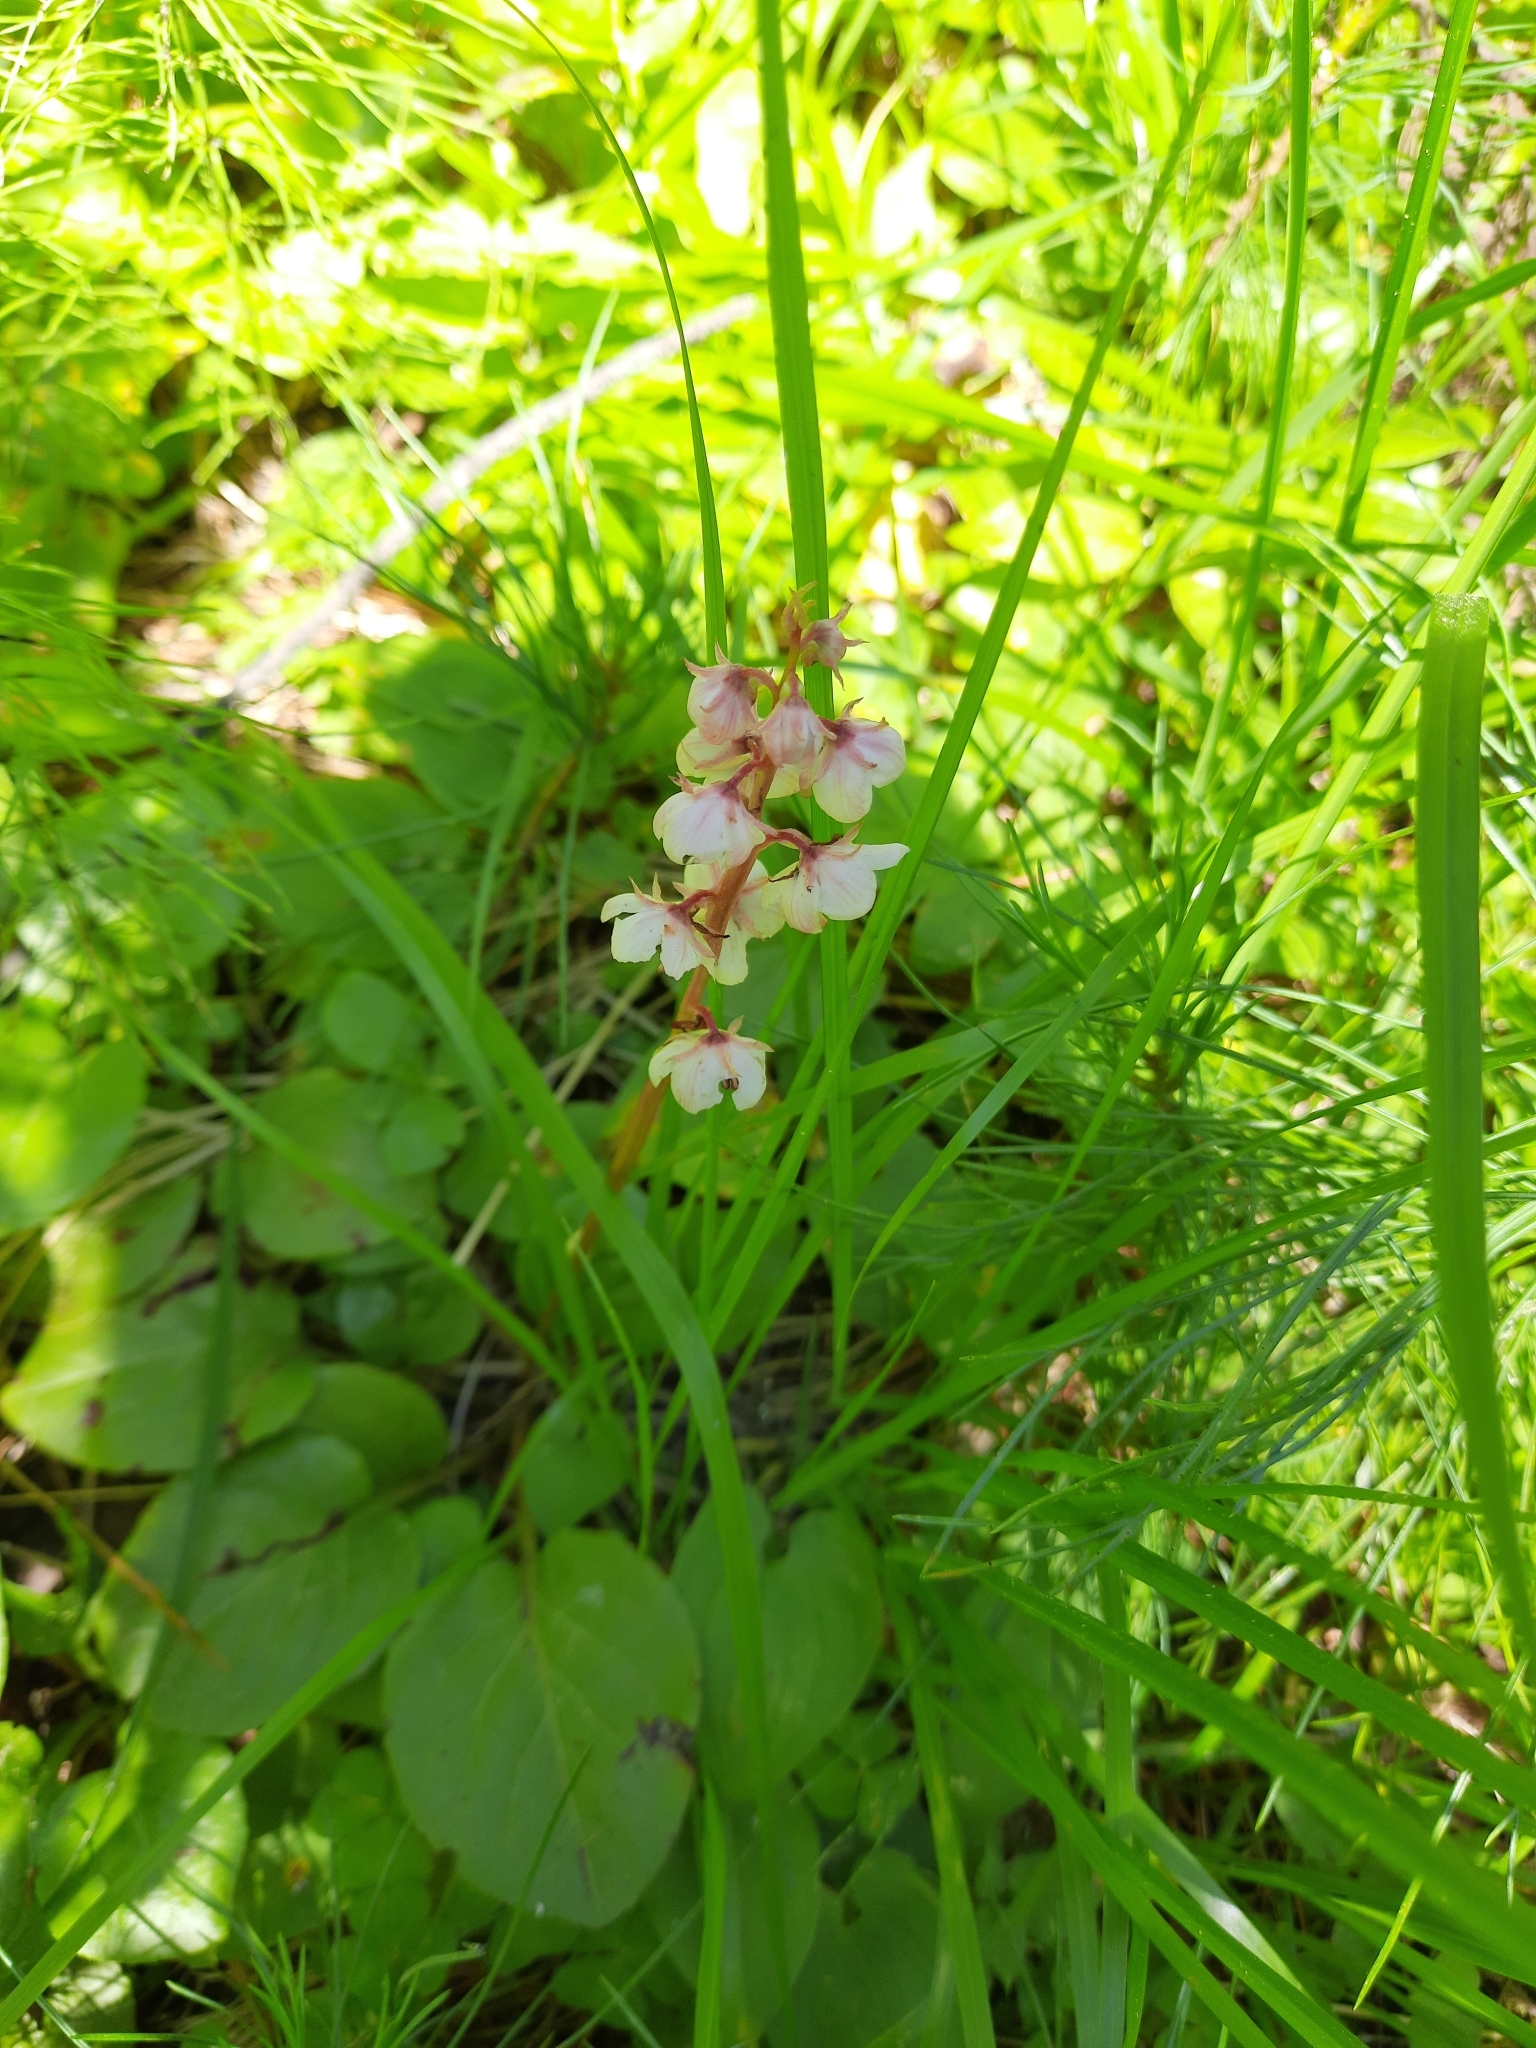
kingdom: Plantae
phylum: Tracheophyta
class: Magnoliopsida
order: Ericales
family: Ericaceae
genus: Pyrola
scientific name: Pyrola asarifolia
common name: Bog wintergreen
